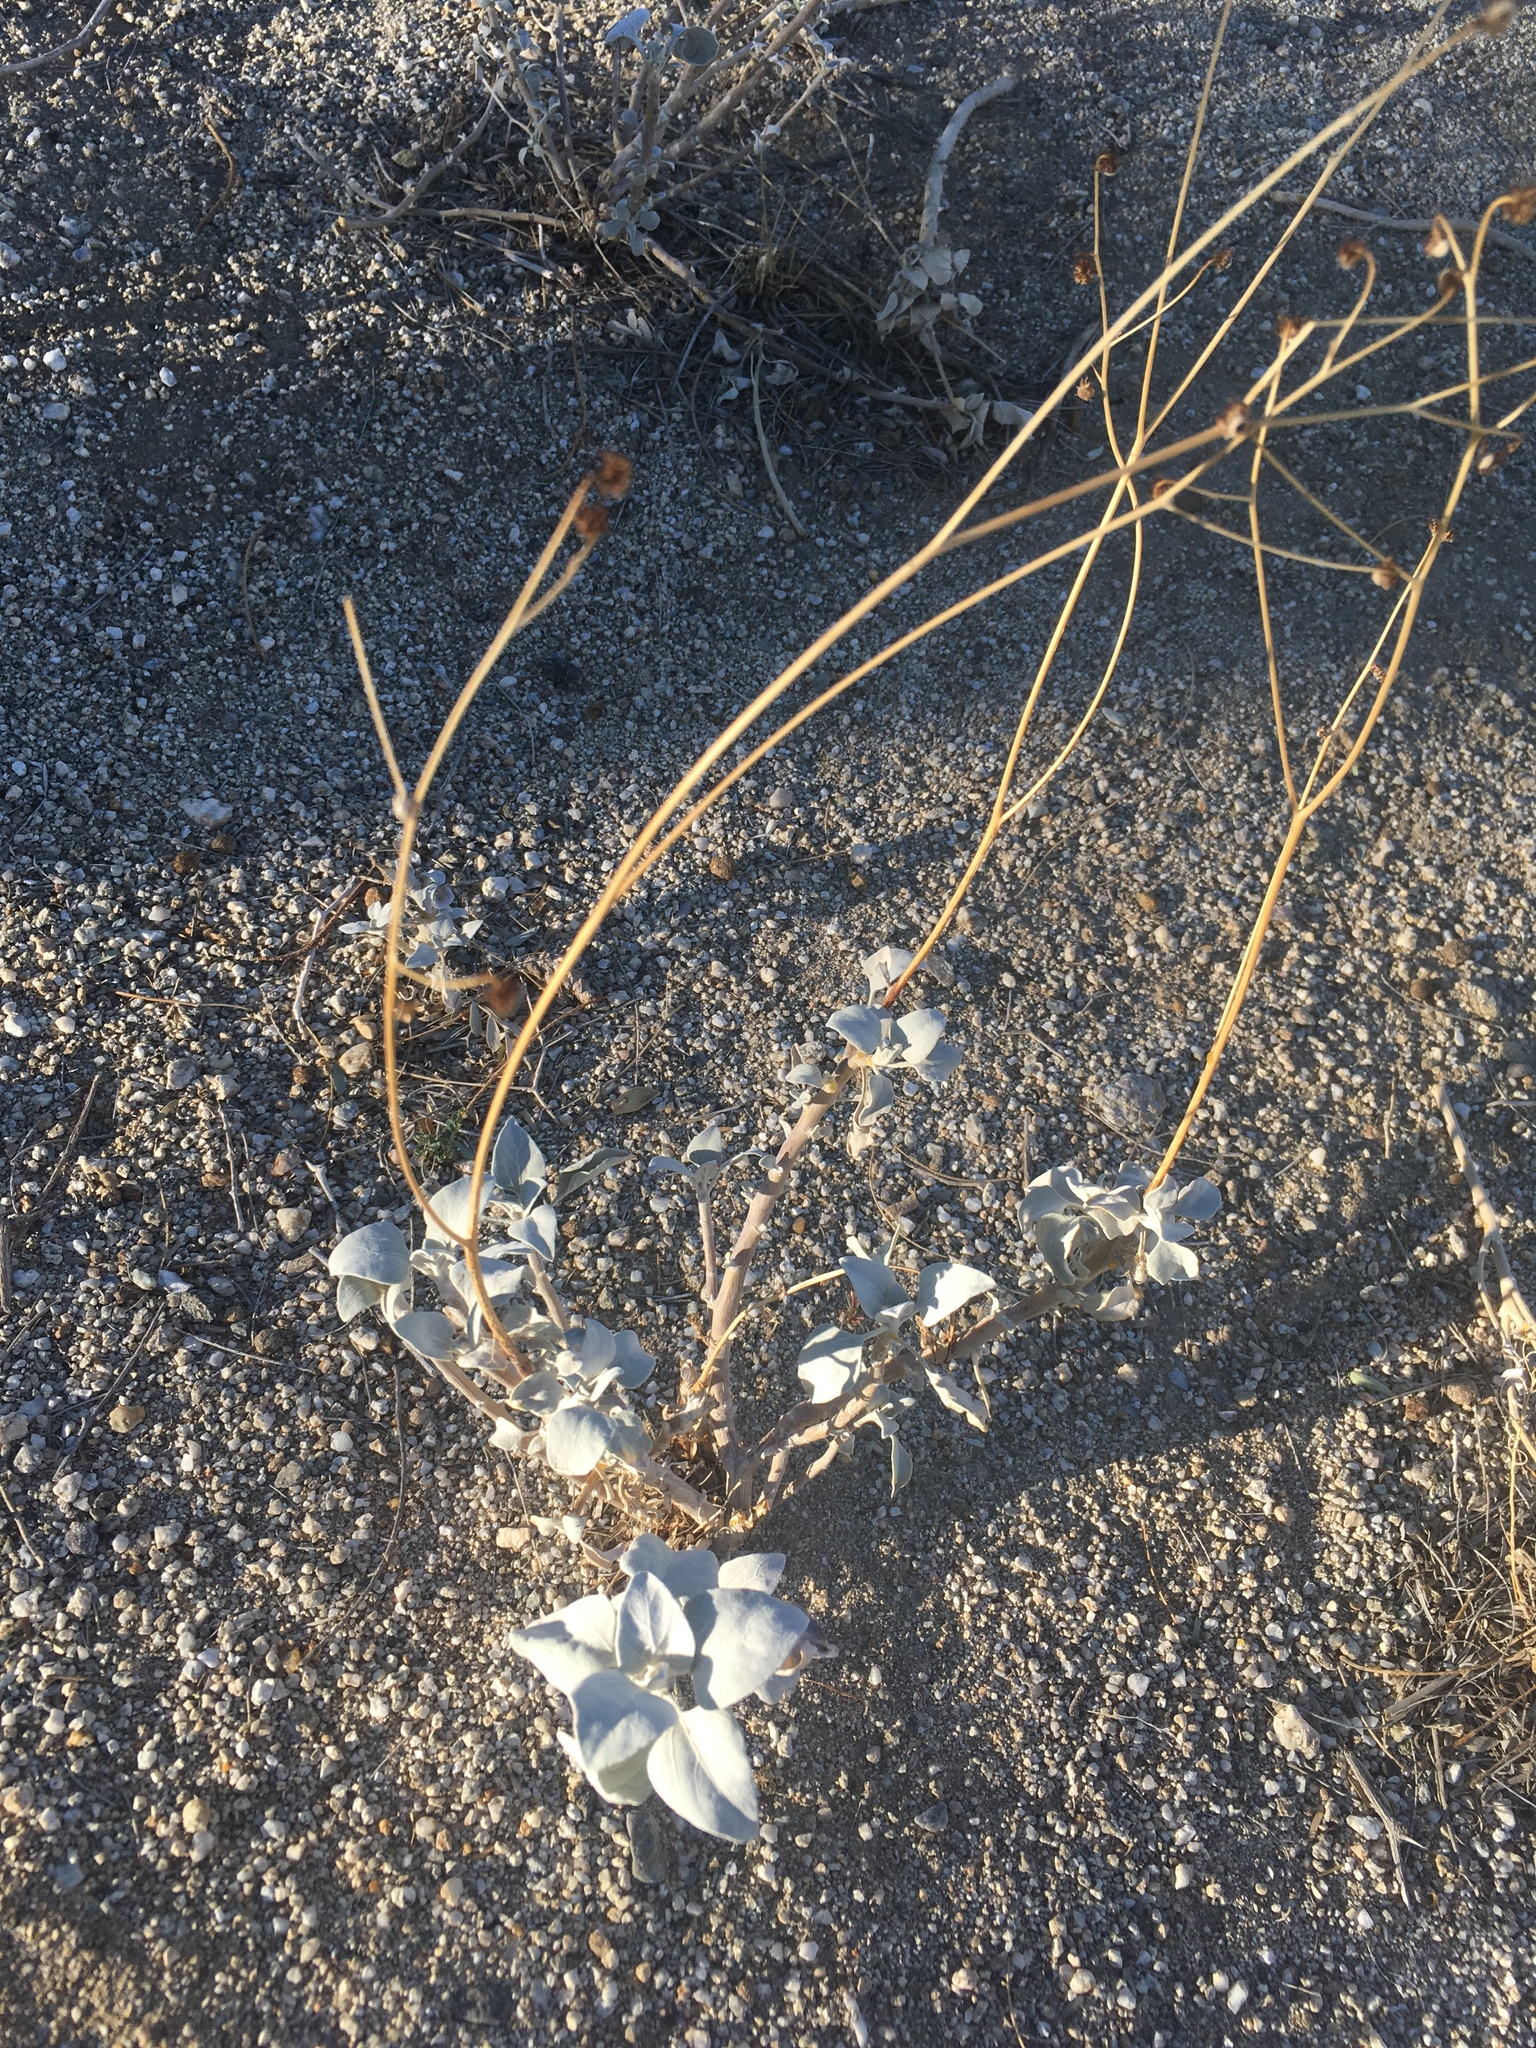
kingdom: Plantae
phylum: Tracheophyta
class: Magnoliopsida
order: Asterales
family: Asteraceae
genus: Encelia
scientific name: Encelia farinosa
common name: Brittlebush
